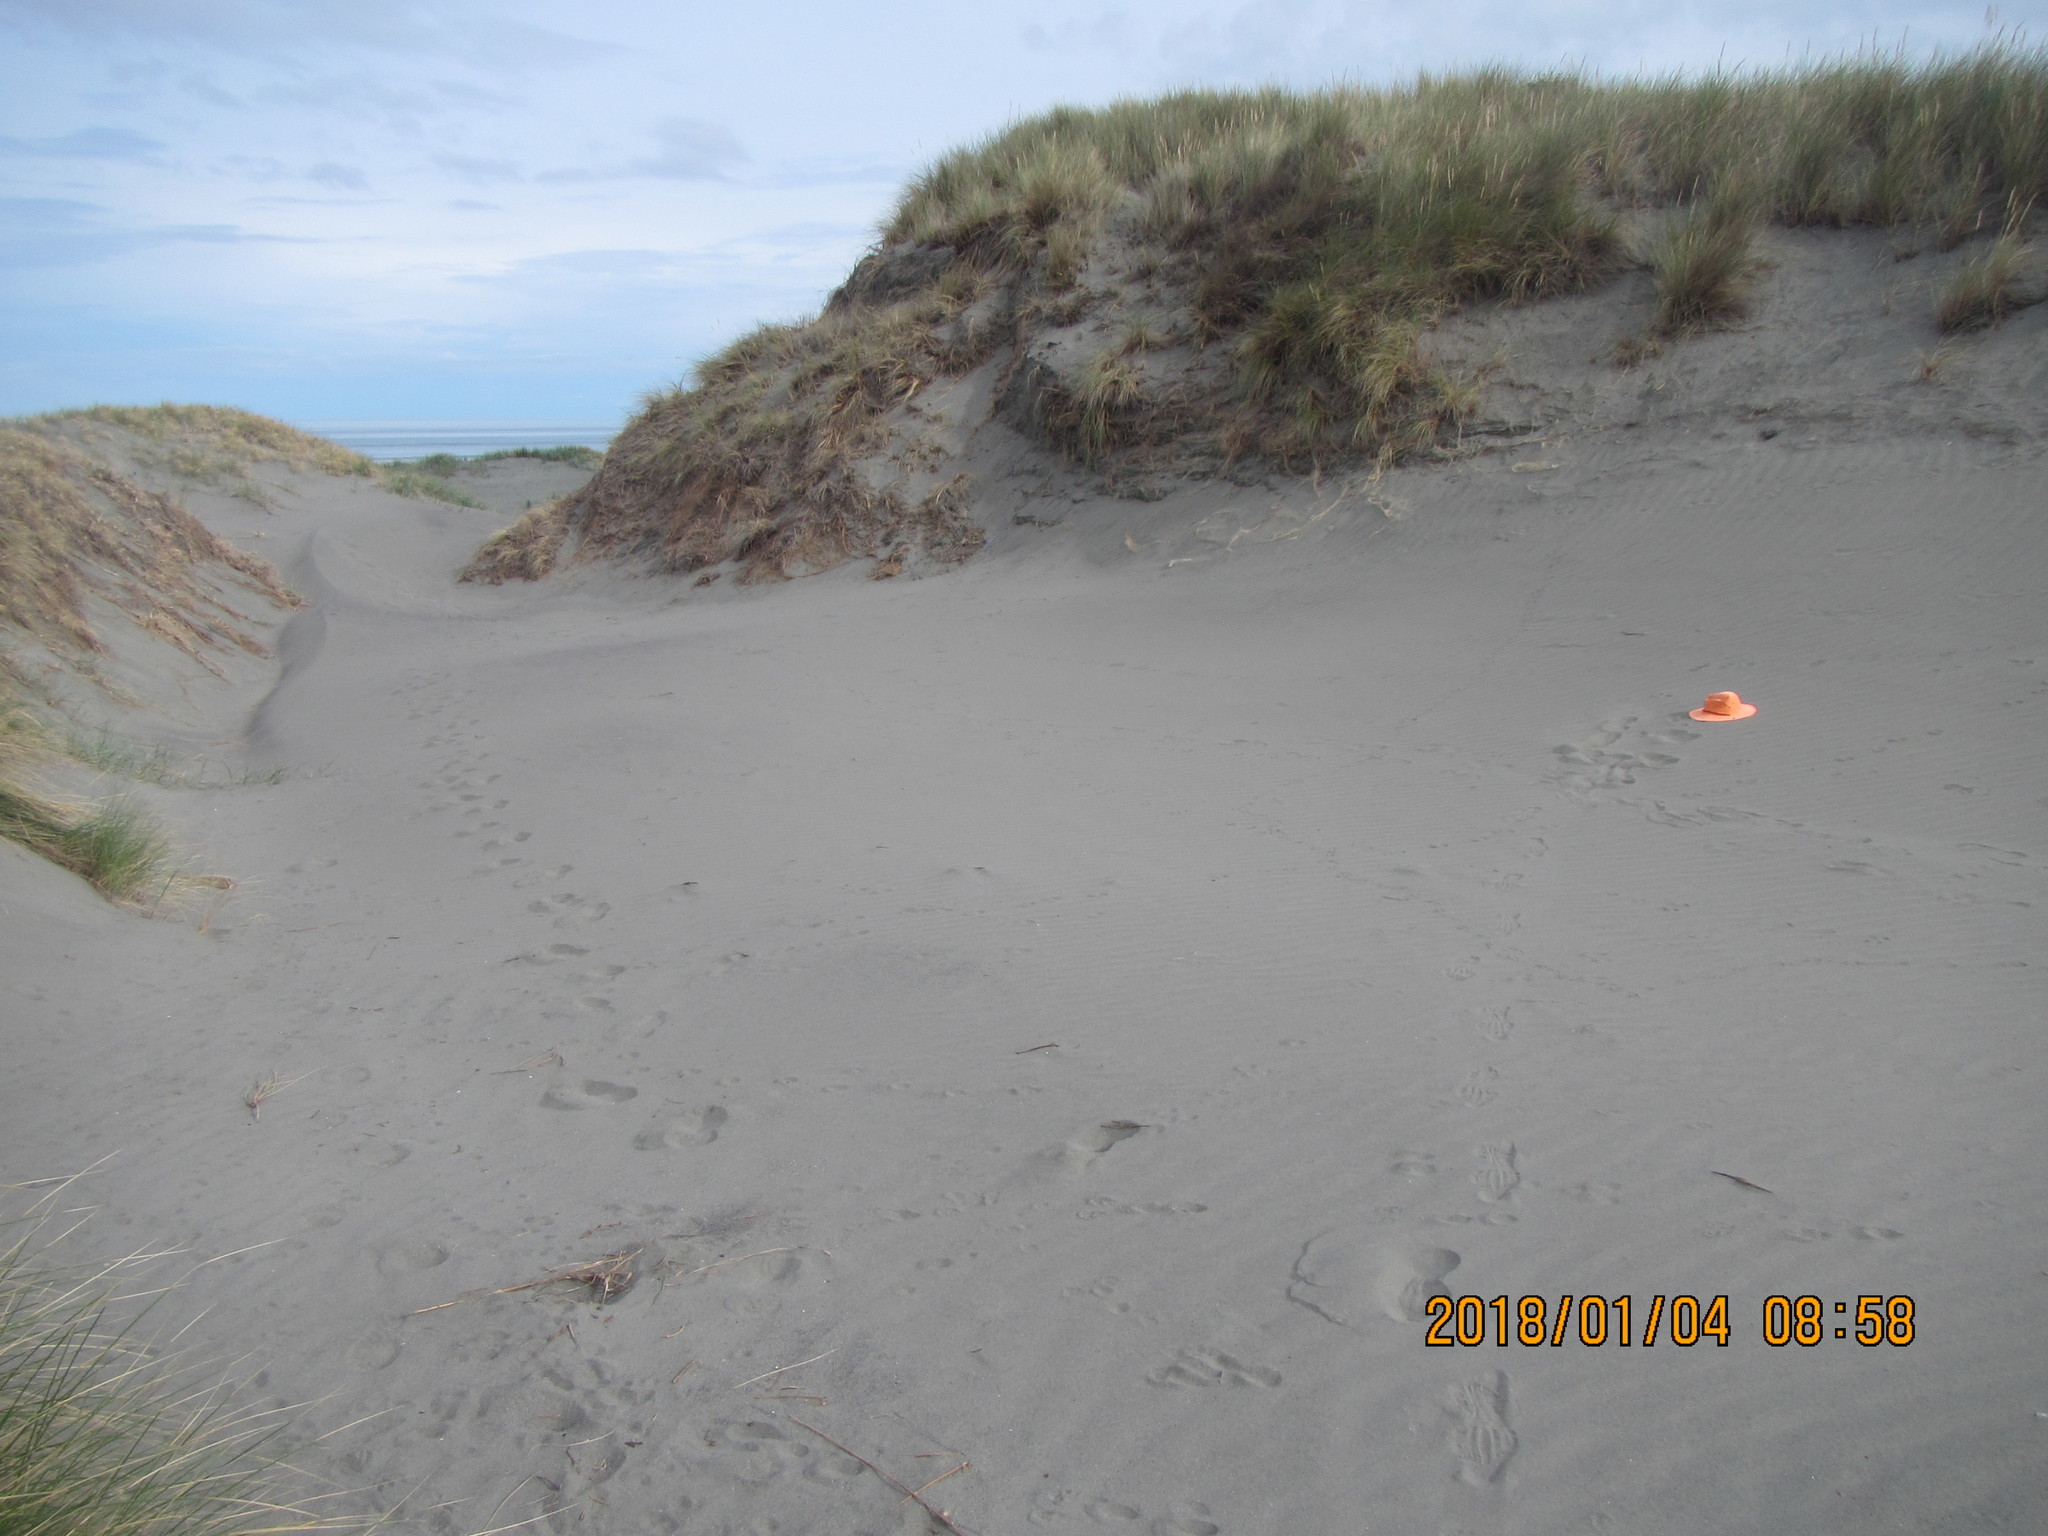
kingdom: Animalia
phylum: Arthropoda
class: Arachnida
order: Araneae
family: Lycosidae
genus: Anoteropsis
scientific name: Anoteropsis litoralis
